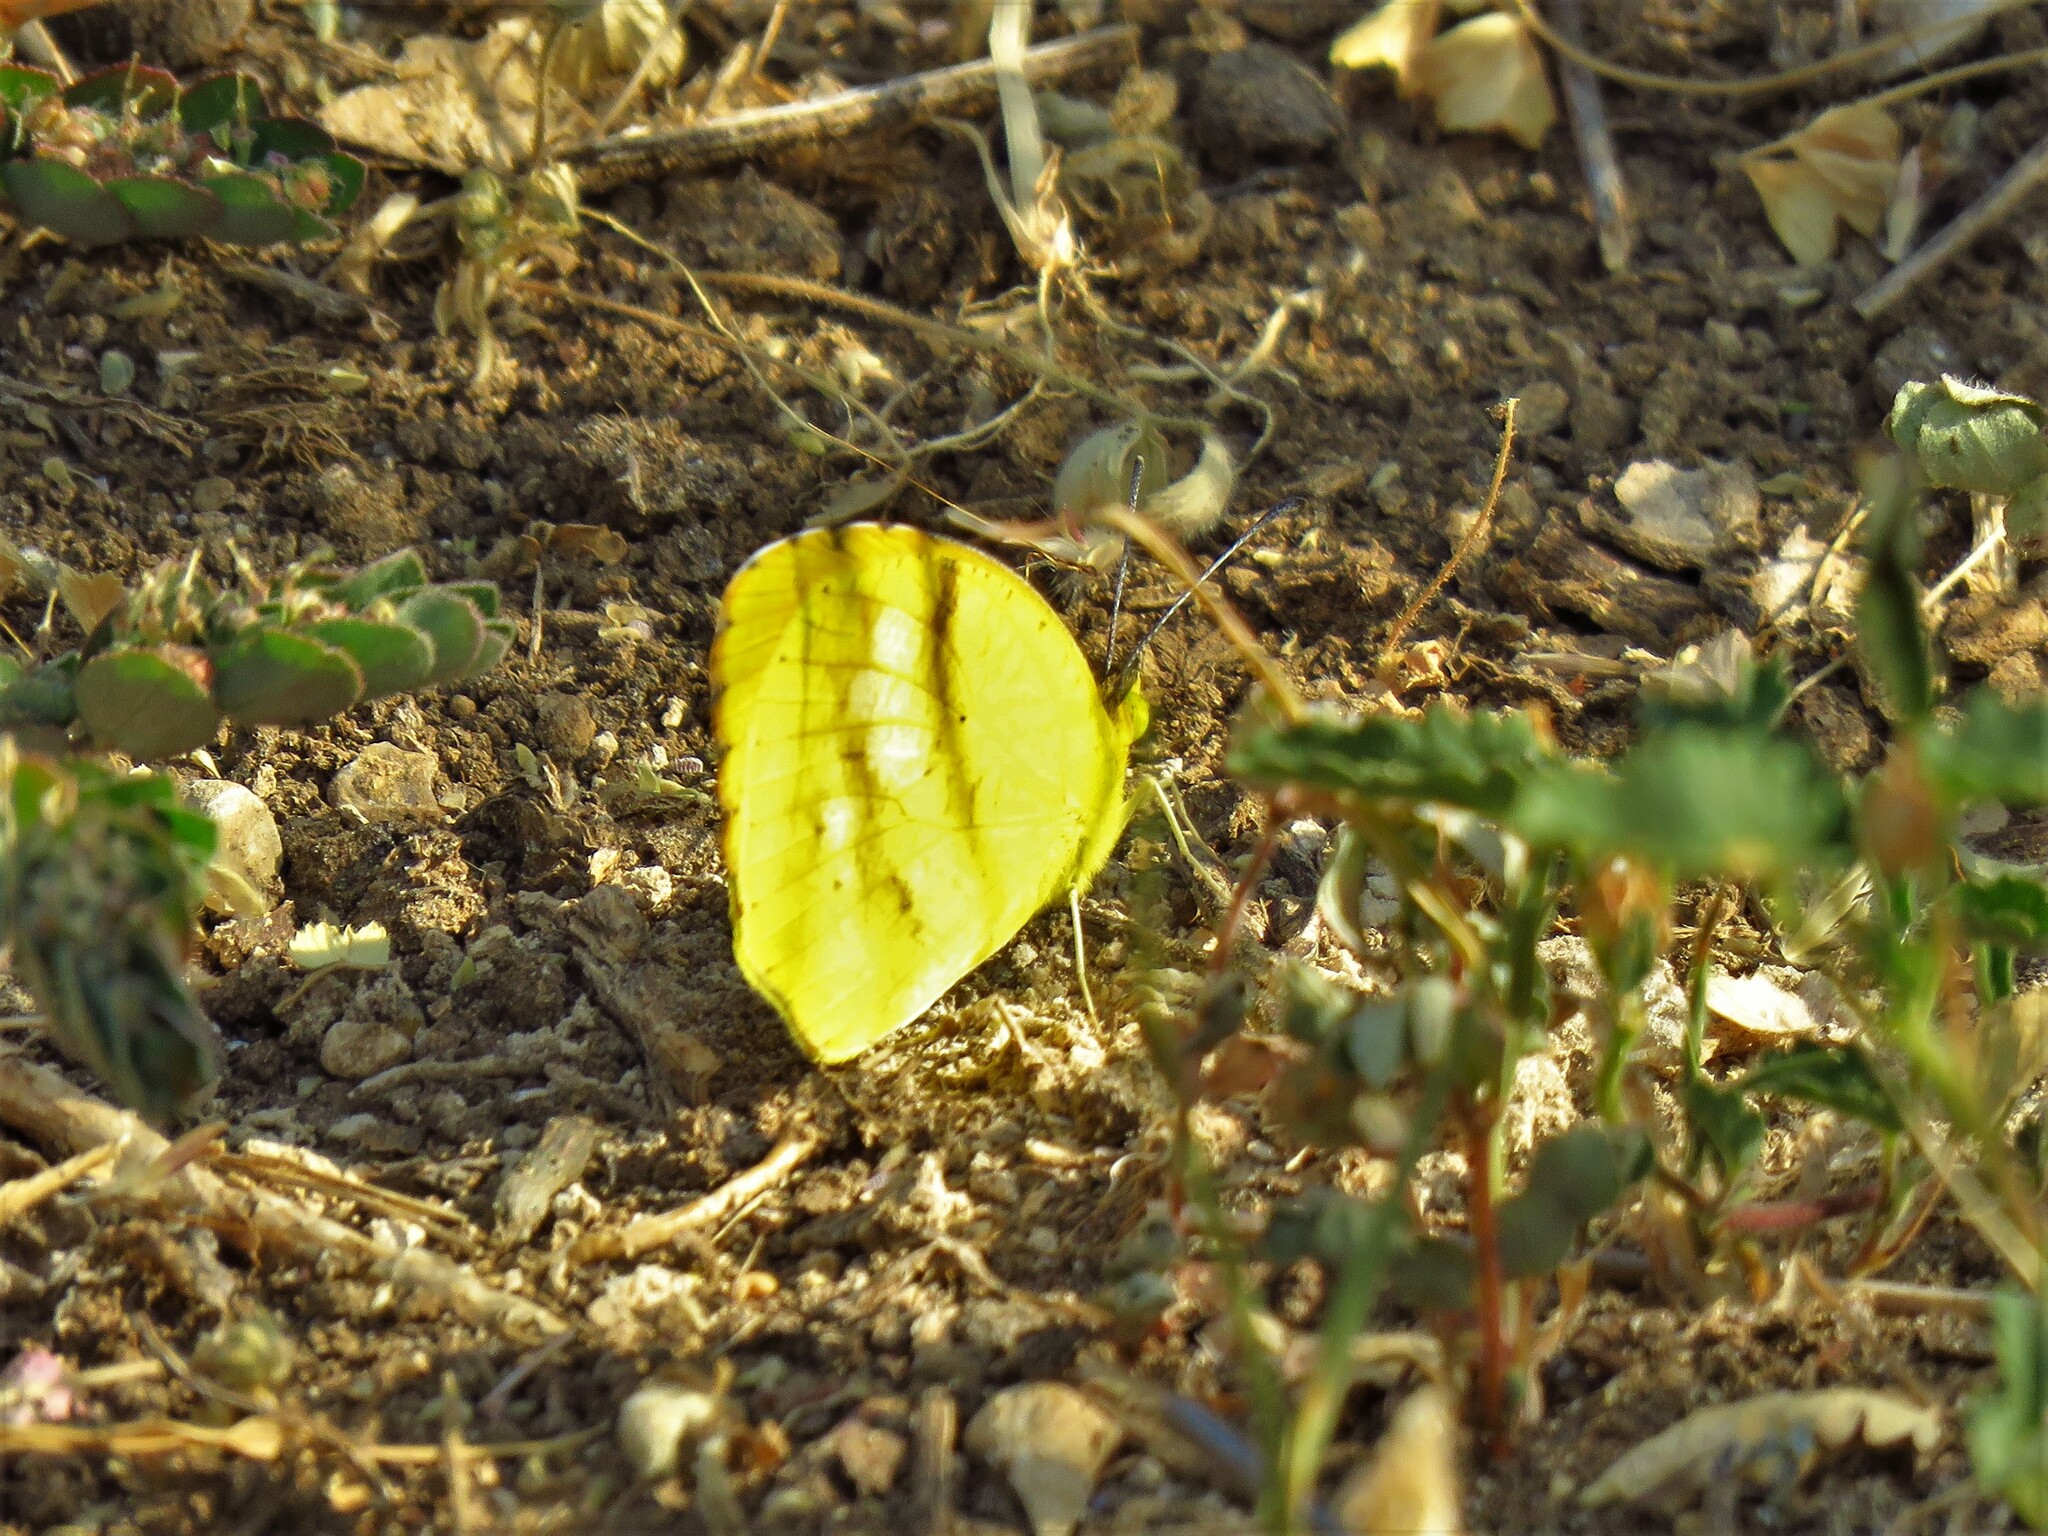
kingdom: Animalia
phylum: Arthropoda
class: Insecta
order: Lepidoptera
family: Pieridae
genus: Abaeis
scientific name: Abaeis nicippe
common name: Sleepy orange
